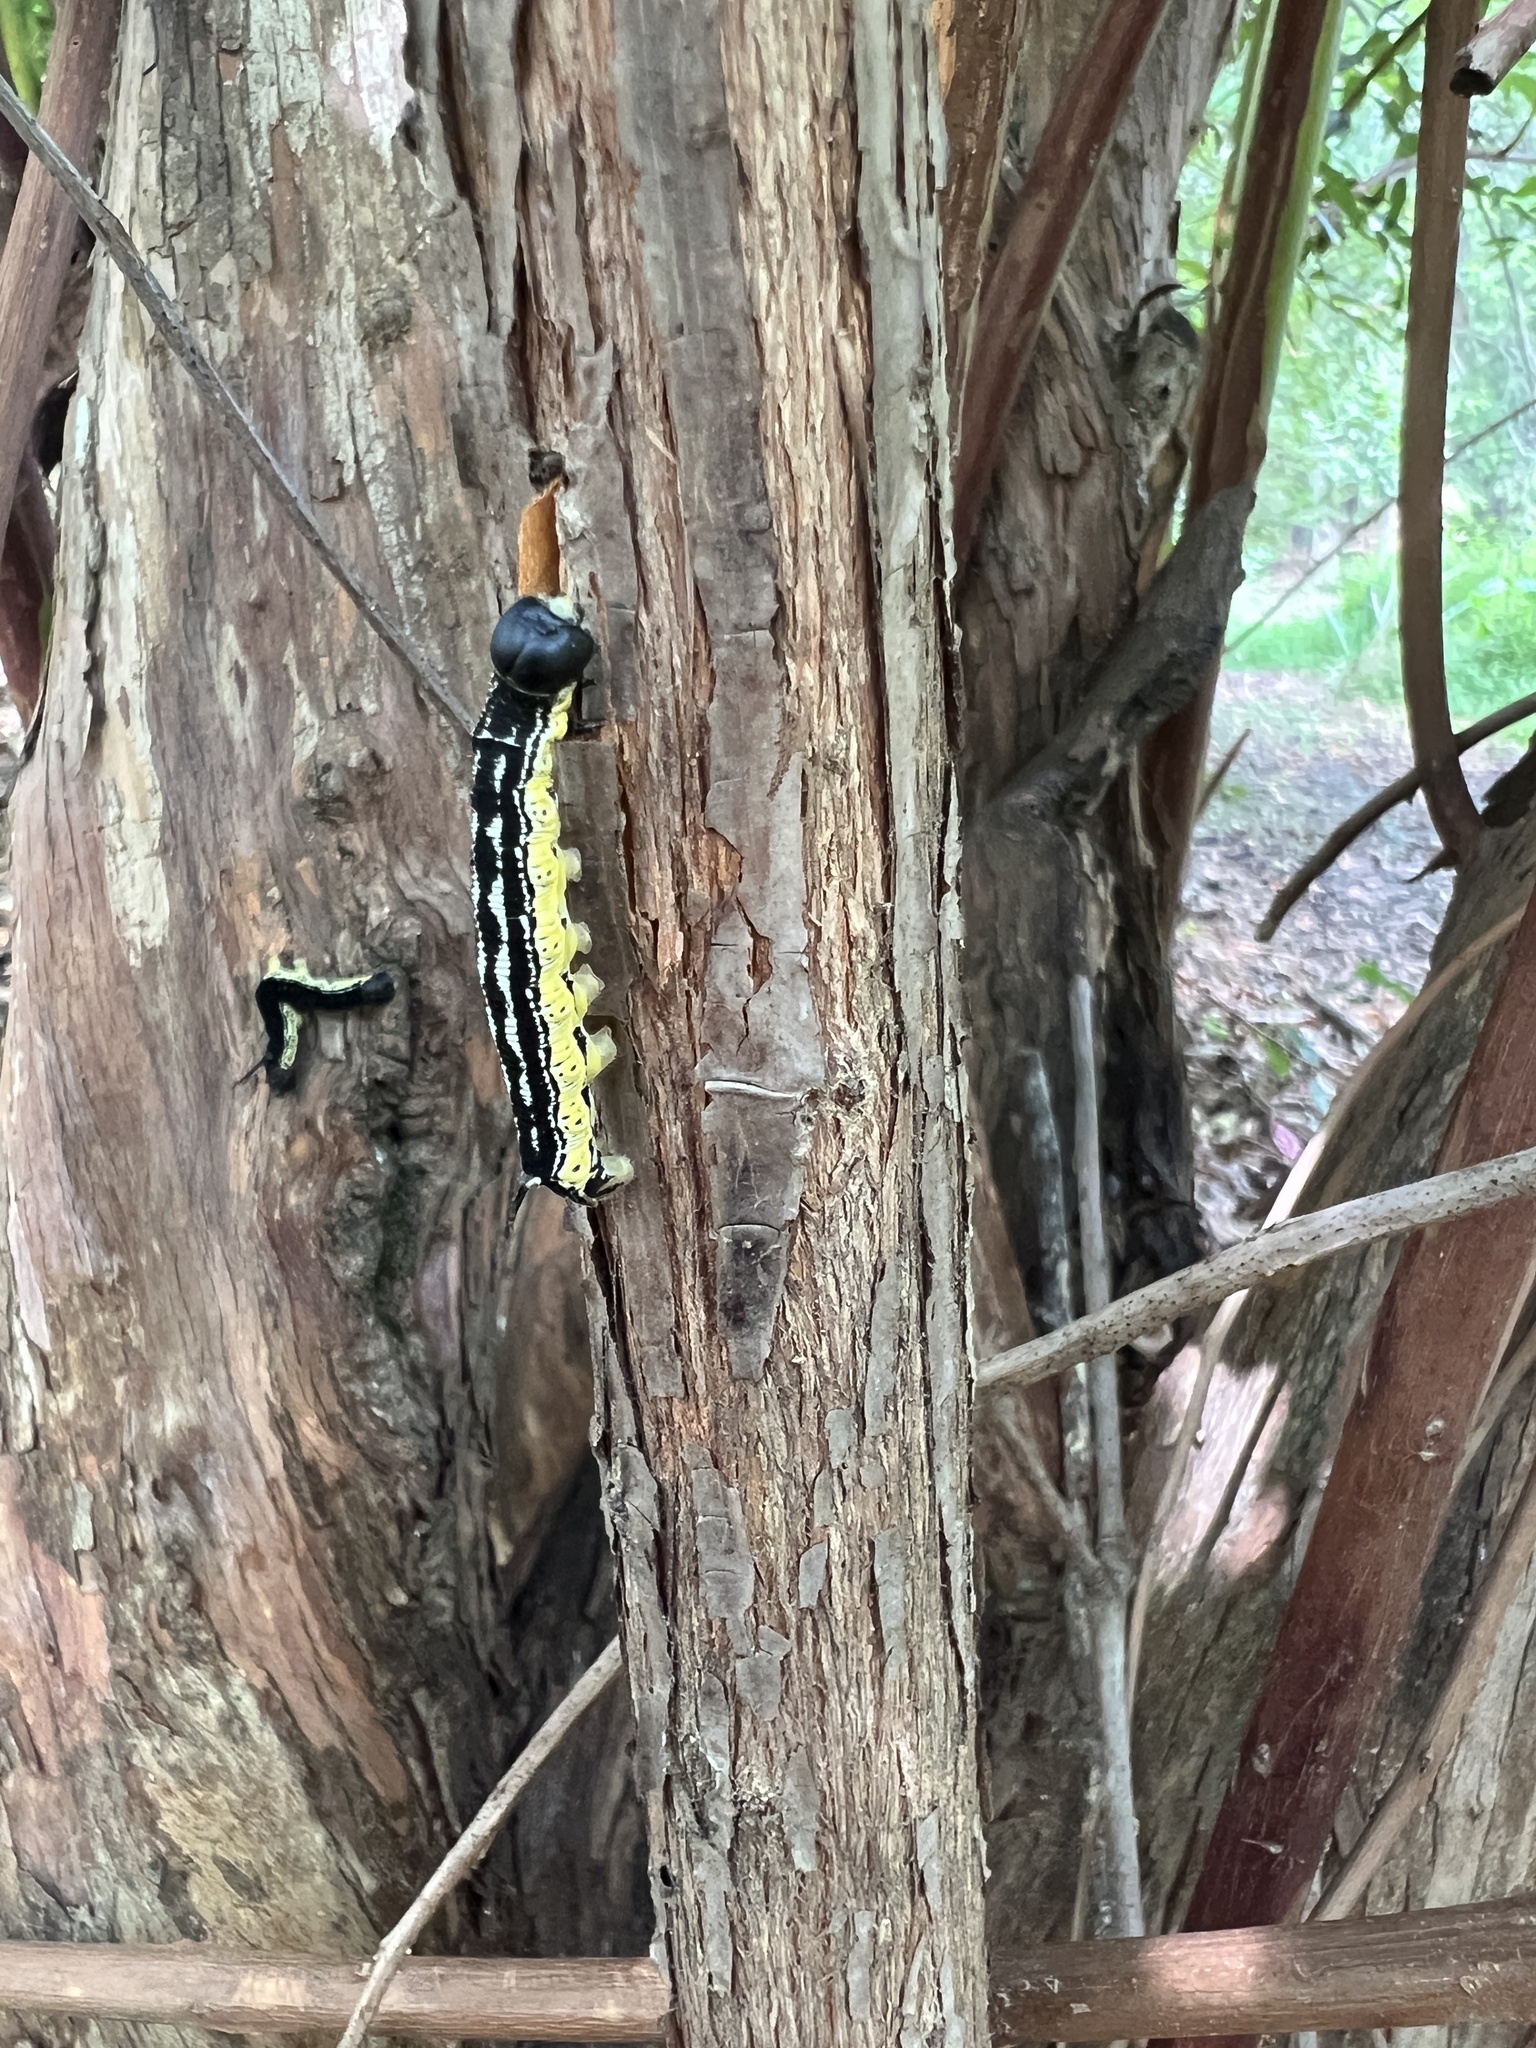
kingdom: Animalia
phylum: Arthropoda
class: Insecta
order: Lepidoptera
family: Sphingidae
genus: Ceratomia
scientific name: Ceratomia catalpae
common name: Catalpa hornworm
